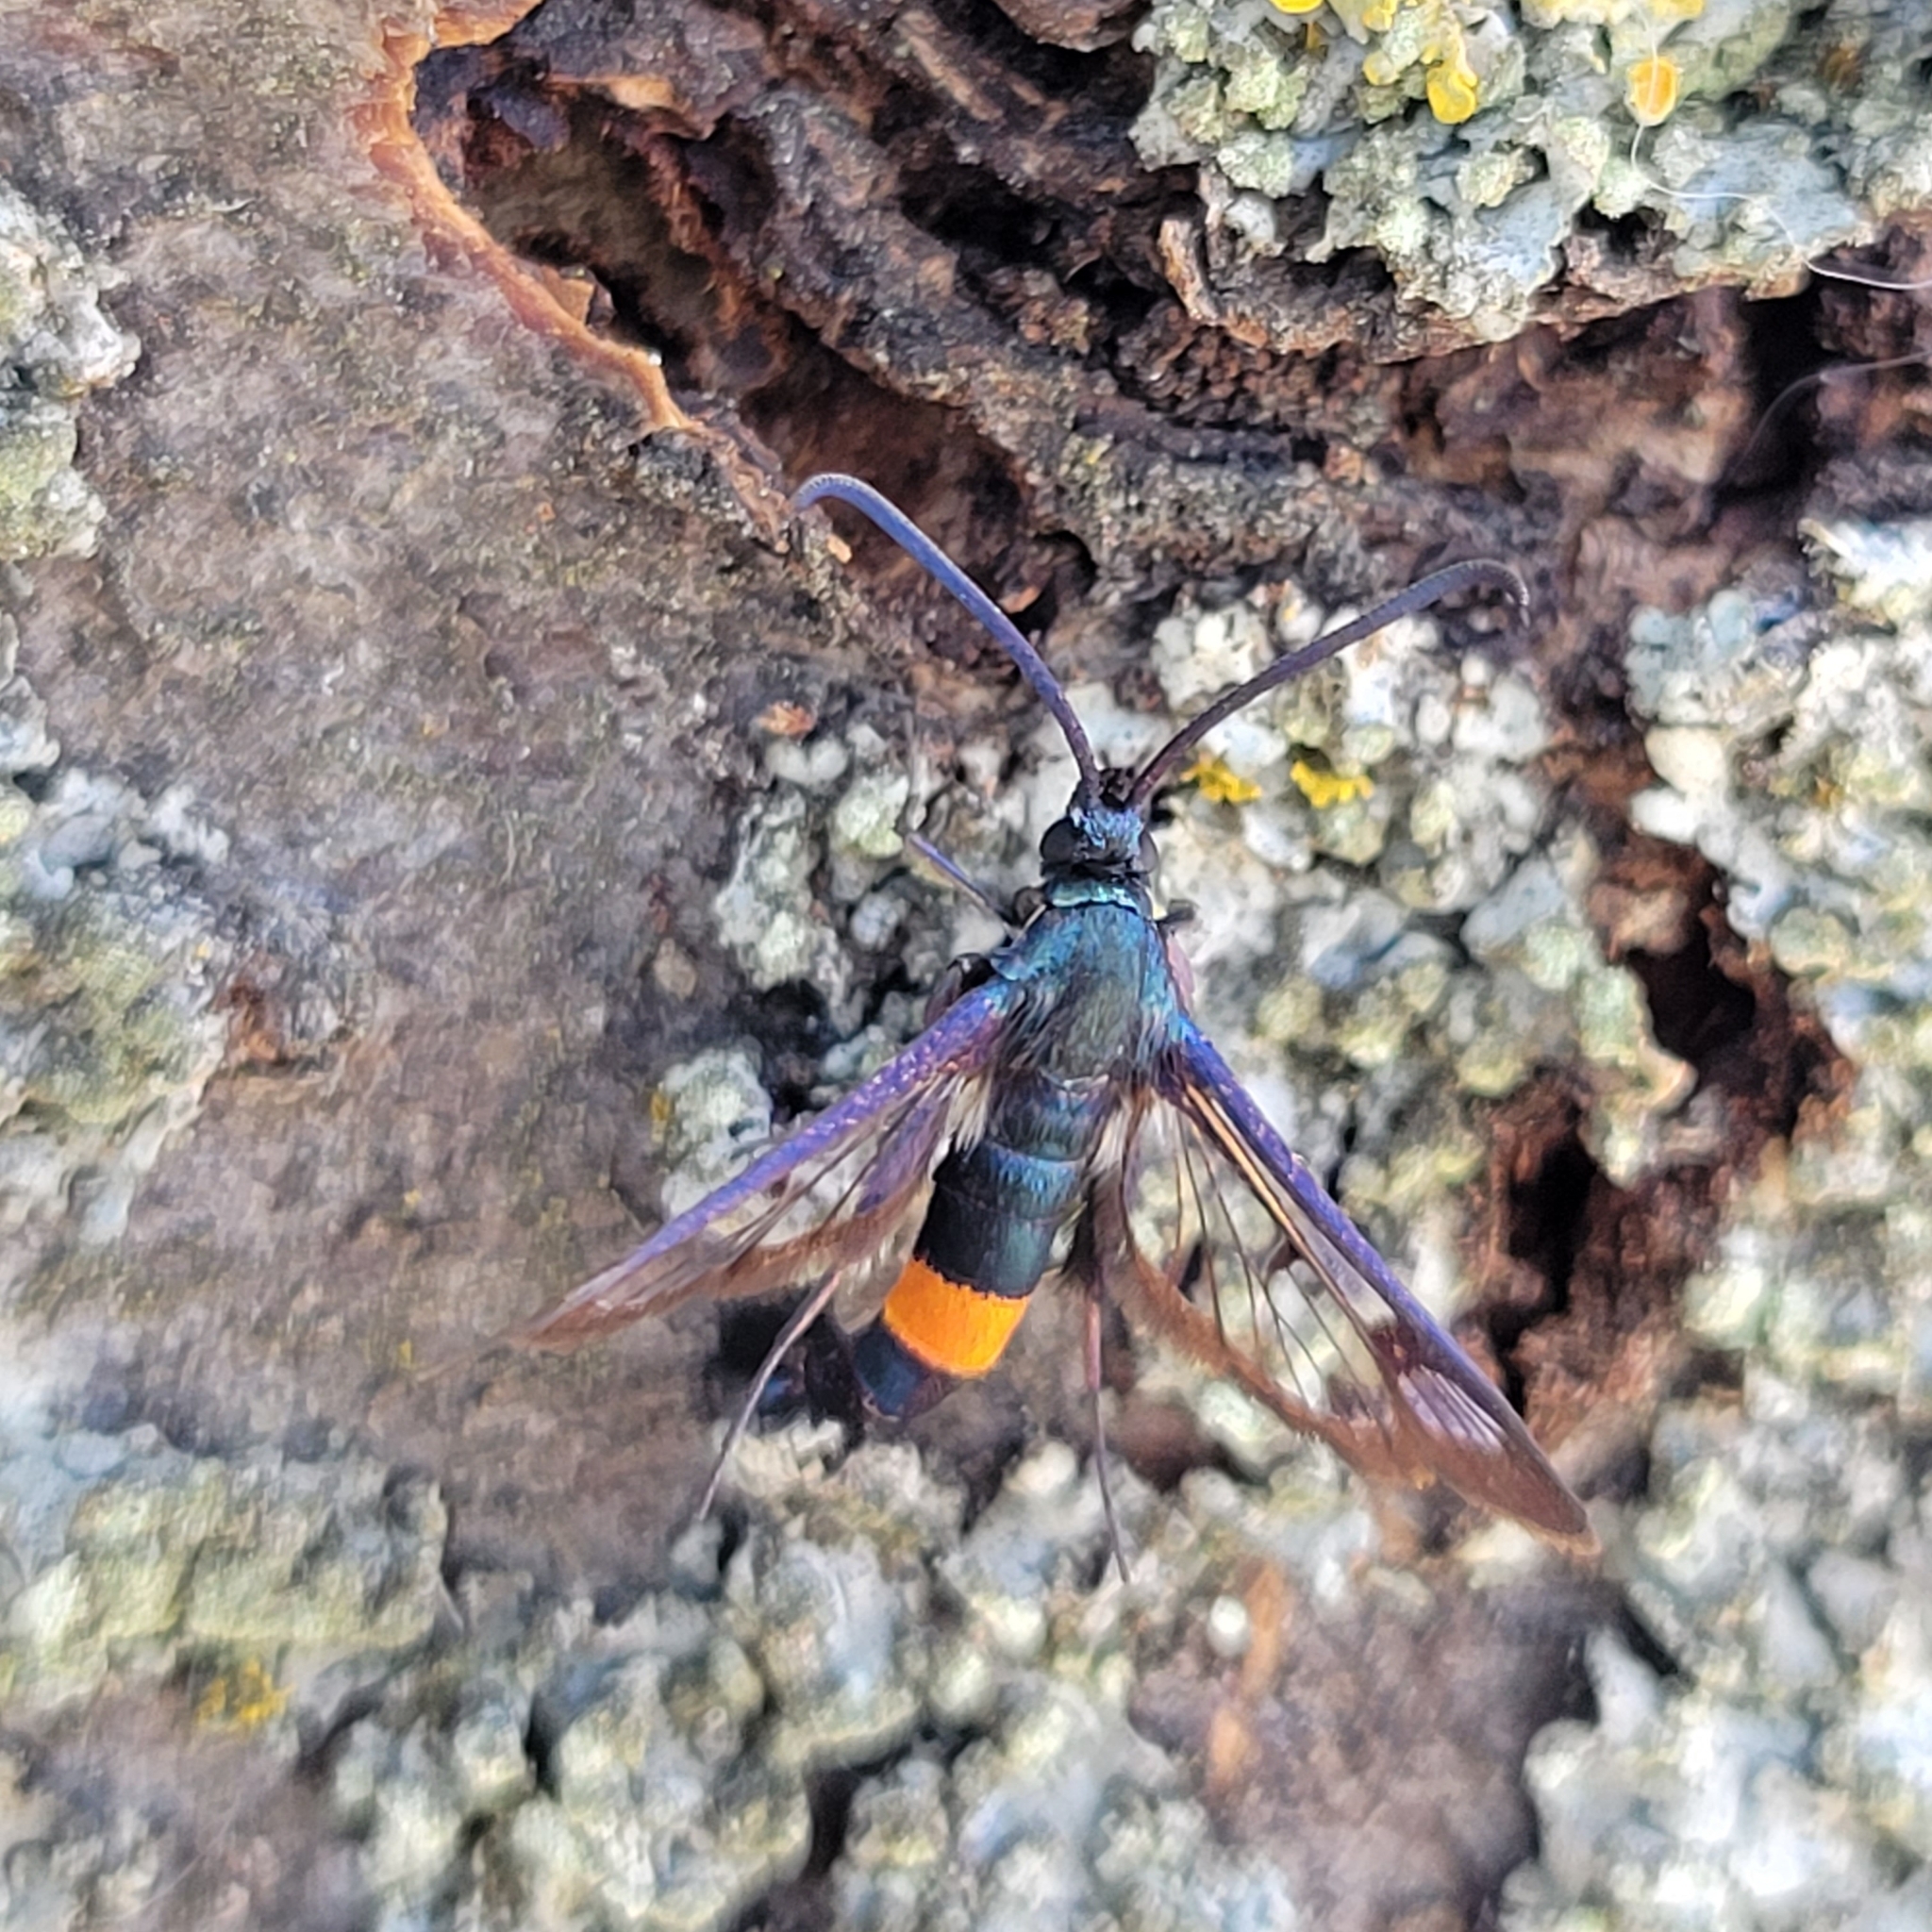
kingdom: Animalia
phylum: Arthropoda
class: Insecta
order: Lepidoptera
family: Sesiidae
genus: Synanthedon
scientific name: Synanthedon myopaeformis
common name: Red-belted clearwing
